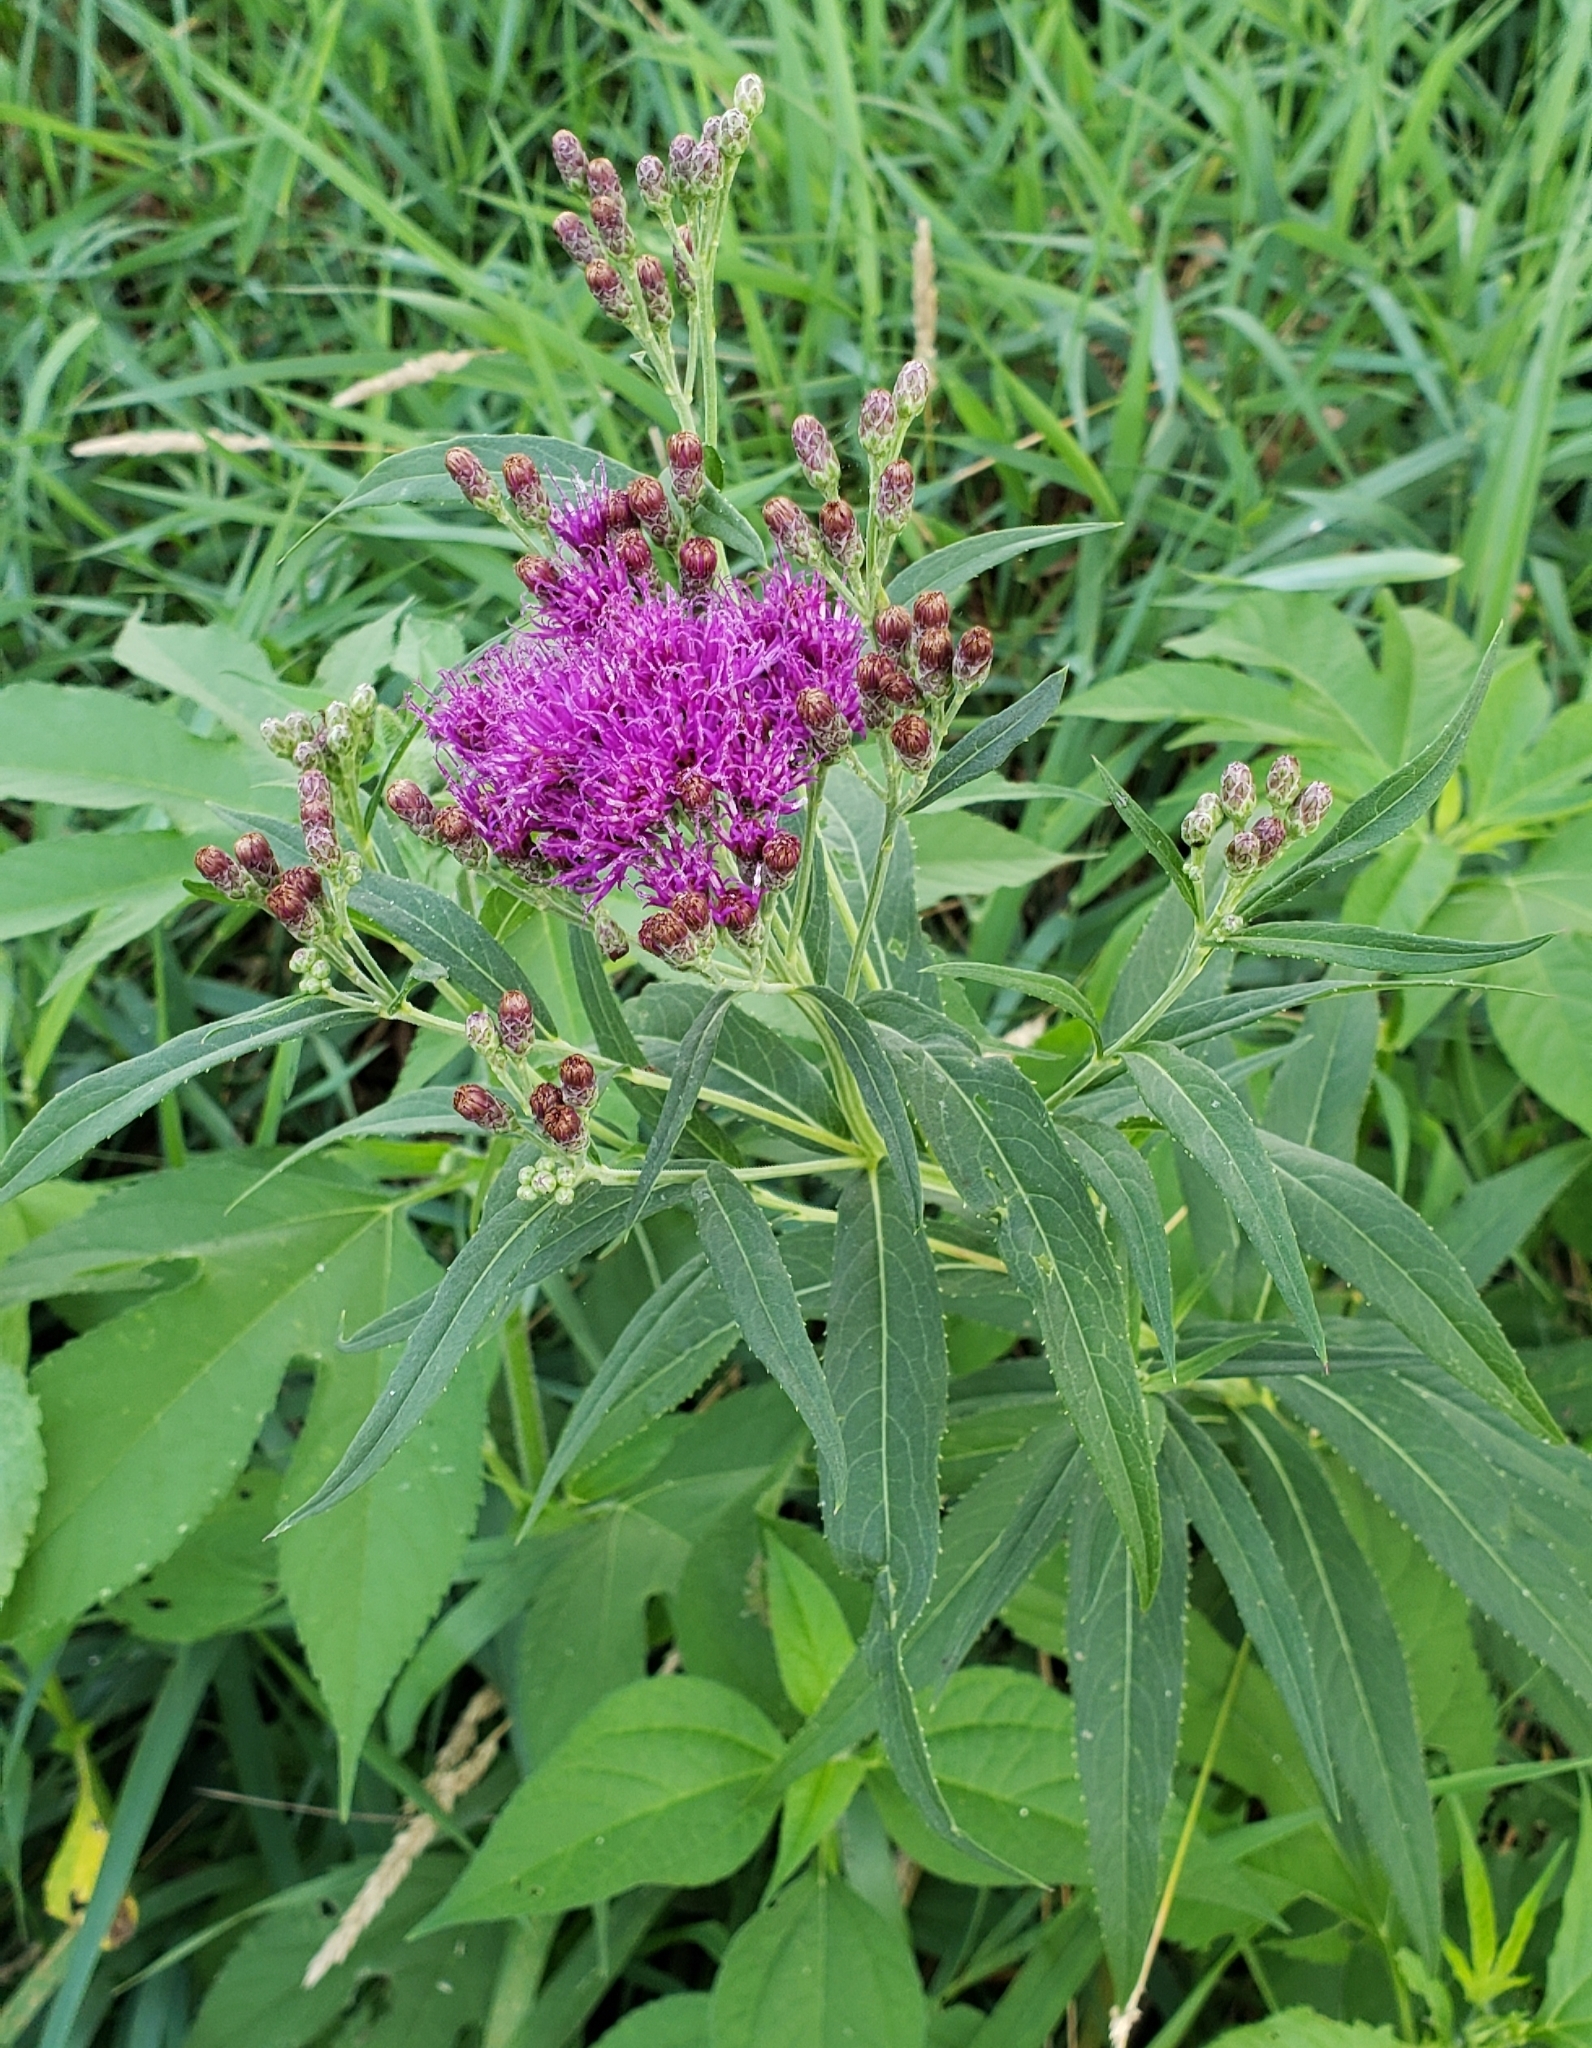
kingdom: Plantae
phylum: Tracheophyta
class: Magnoliopsida
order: Asterales
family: Asteraceae
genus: Vernonia
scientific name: Vernonia fasciculata
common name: Fascicled ironweed
